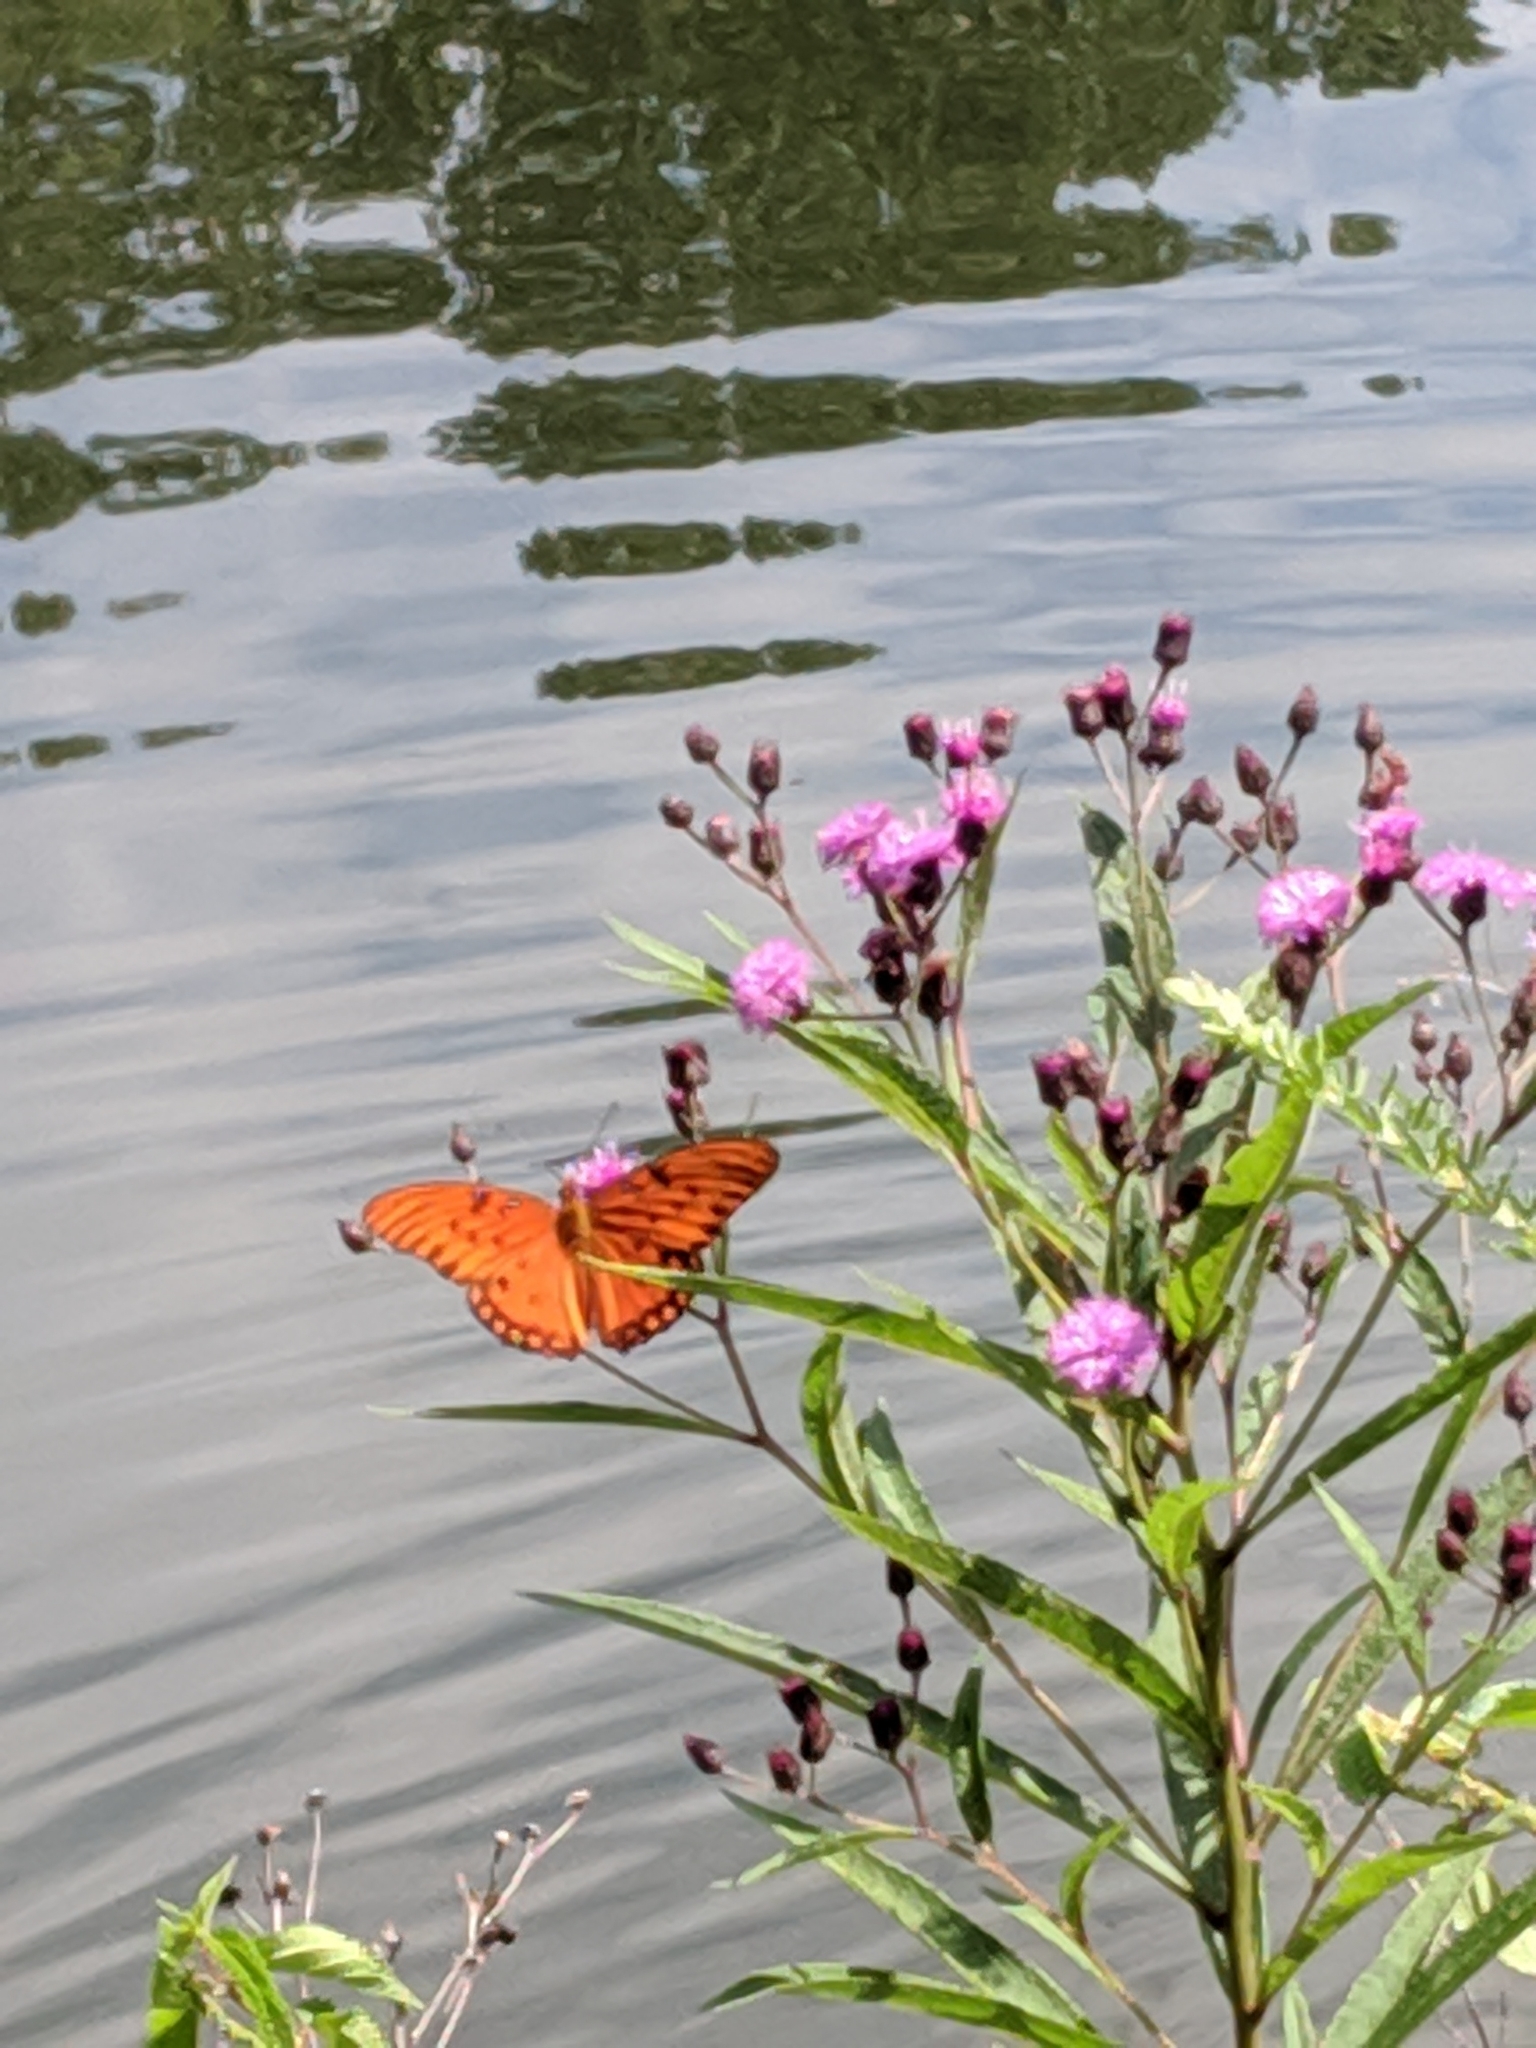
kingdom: Animalia
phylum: Arthropoda
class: Insecta
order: Lepidoptera
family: Nymphalidae
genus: Dione
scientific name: Dione vanillae
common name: Gulf fritillary
